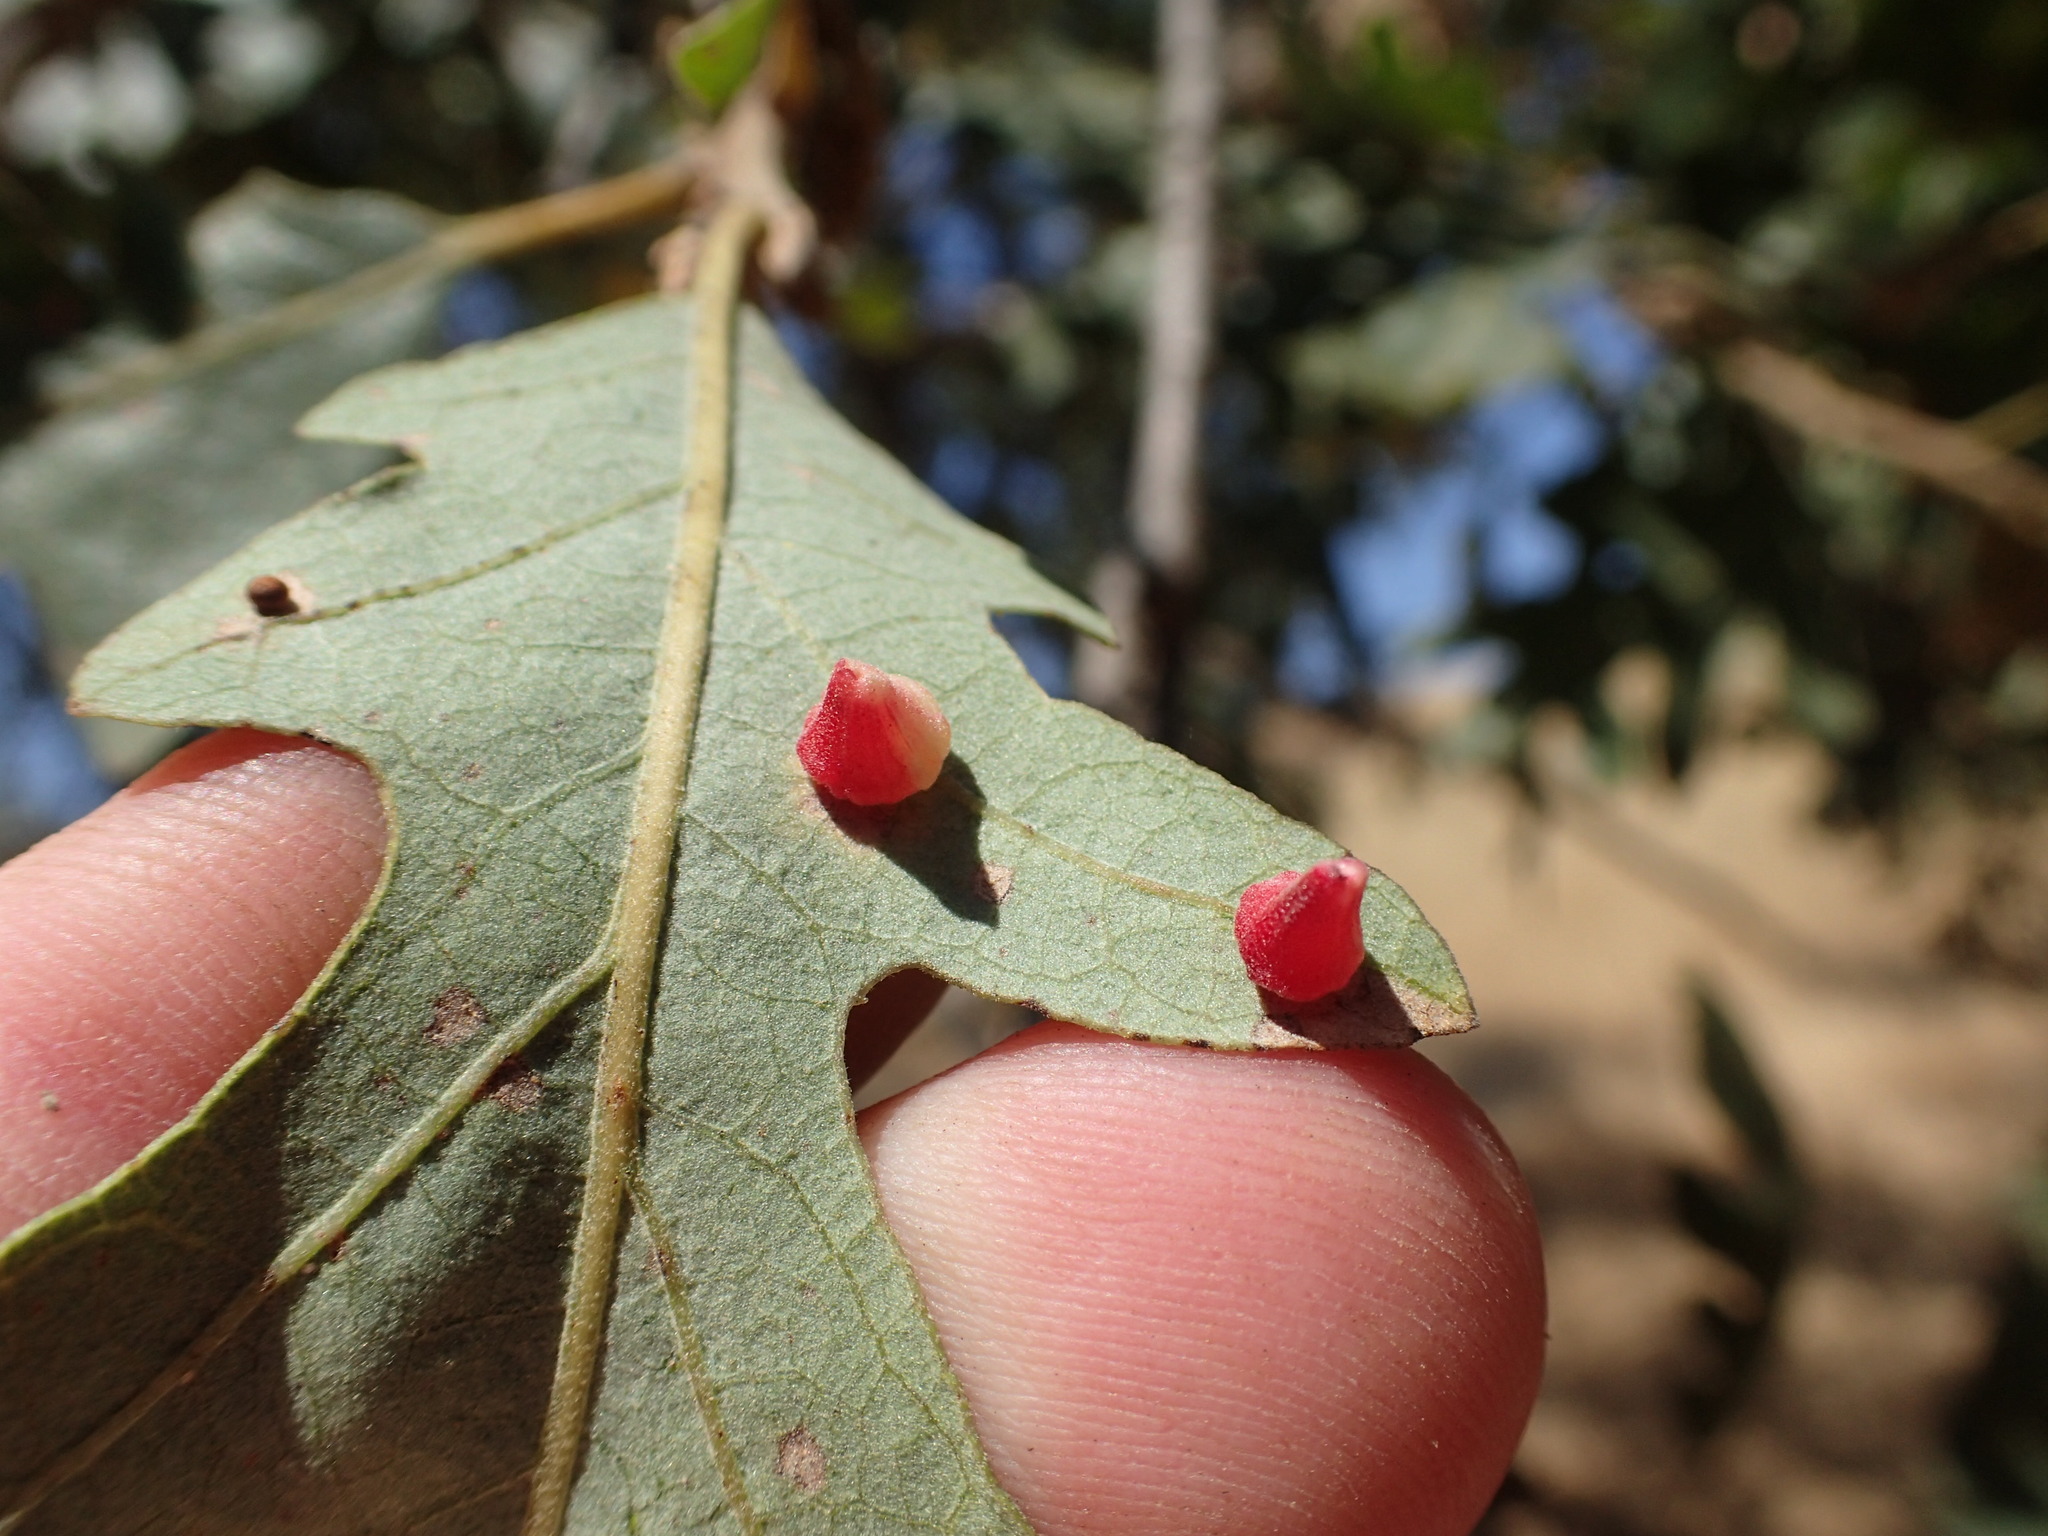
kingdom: Animalia
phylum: Arthropoda
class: Insecta
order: Hymenoptera
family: Cynipidae
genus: Andricus
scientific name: Andricus
